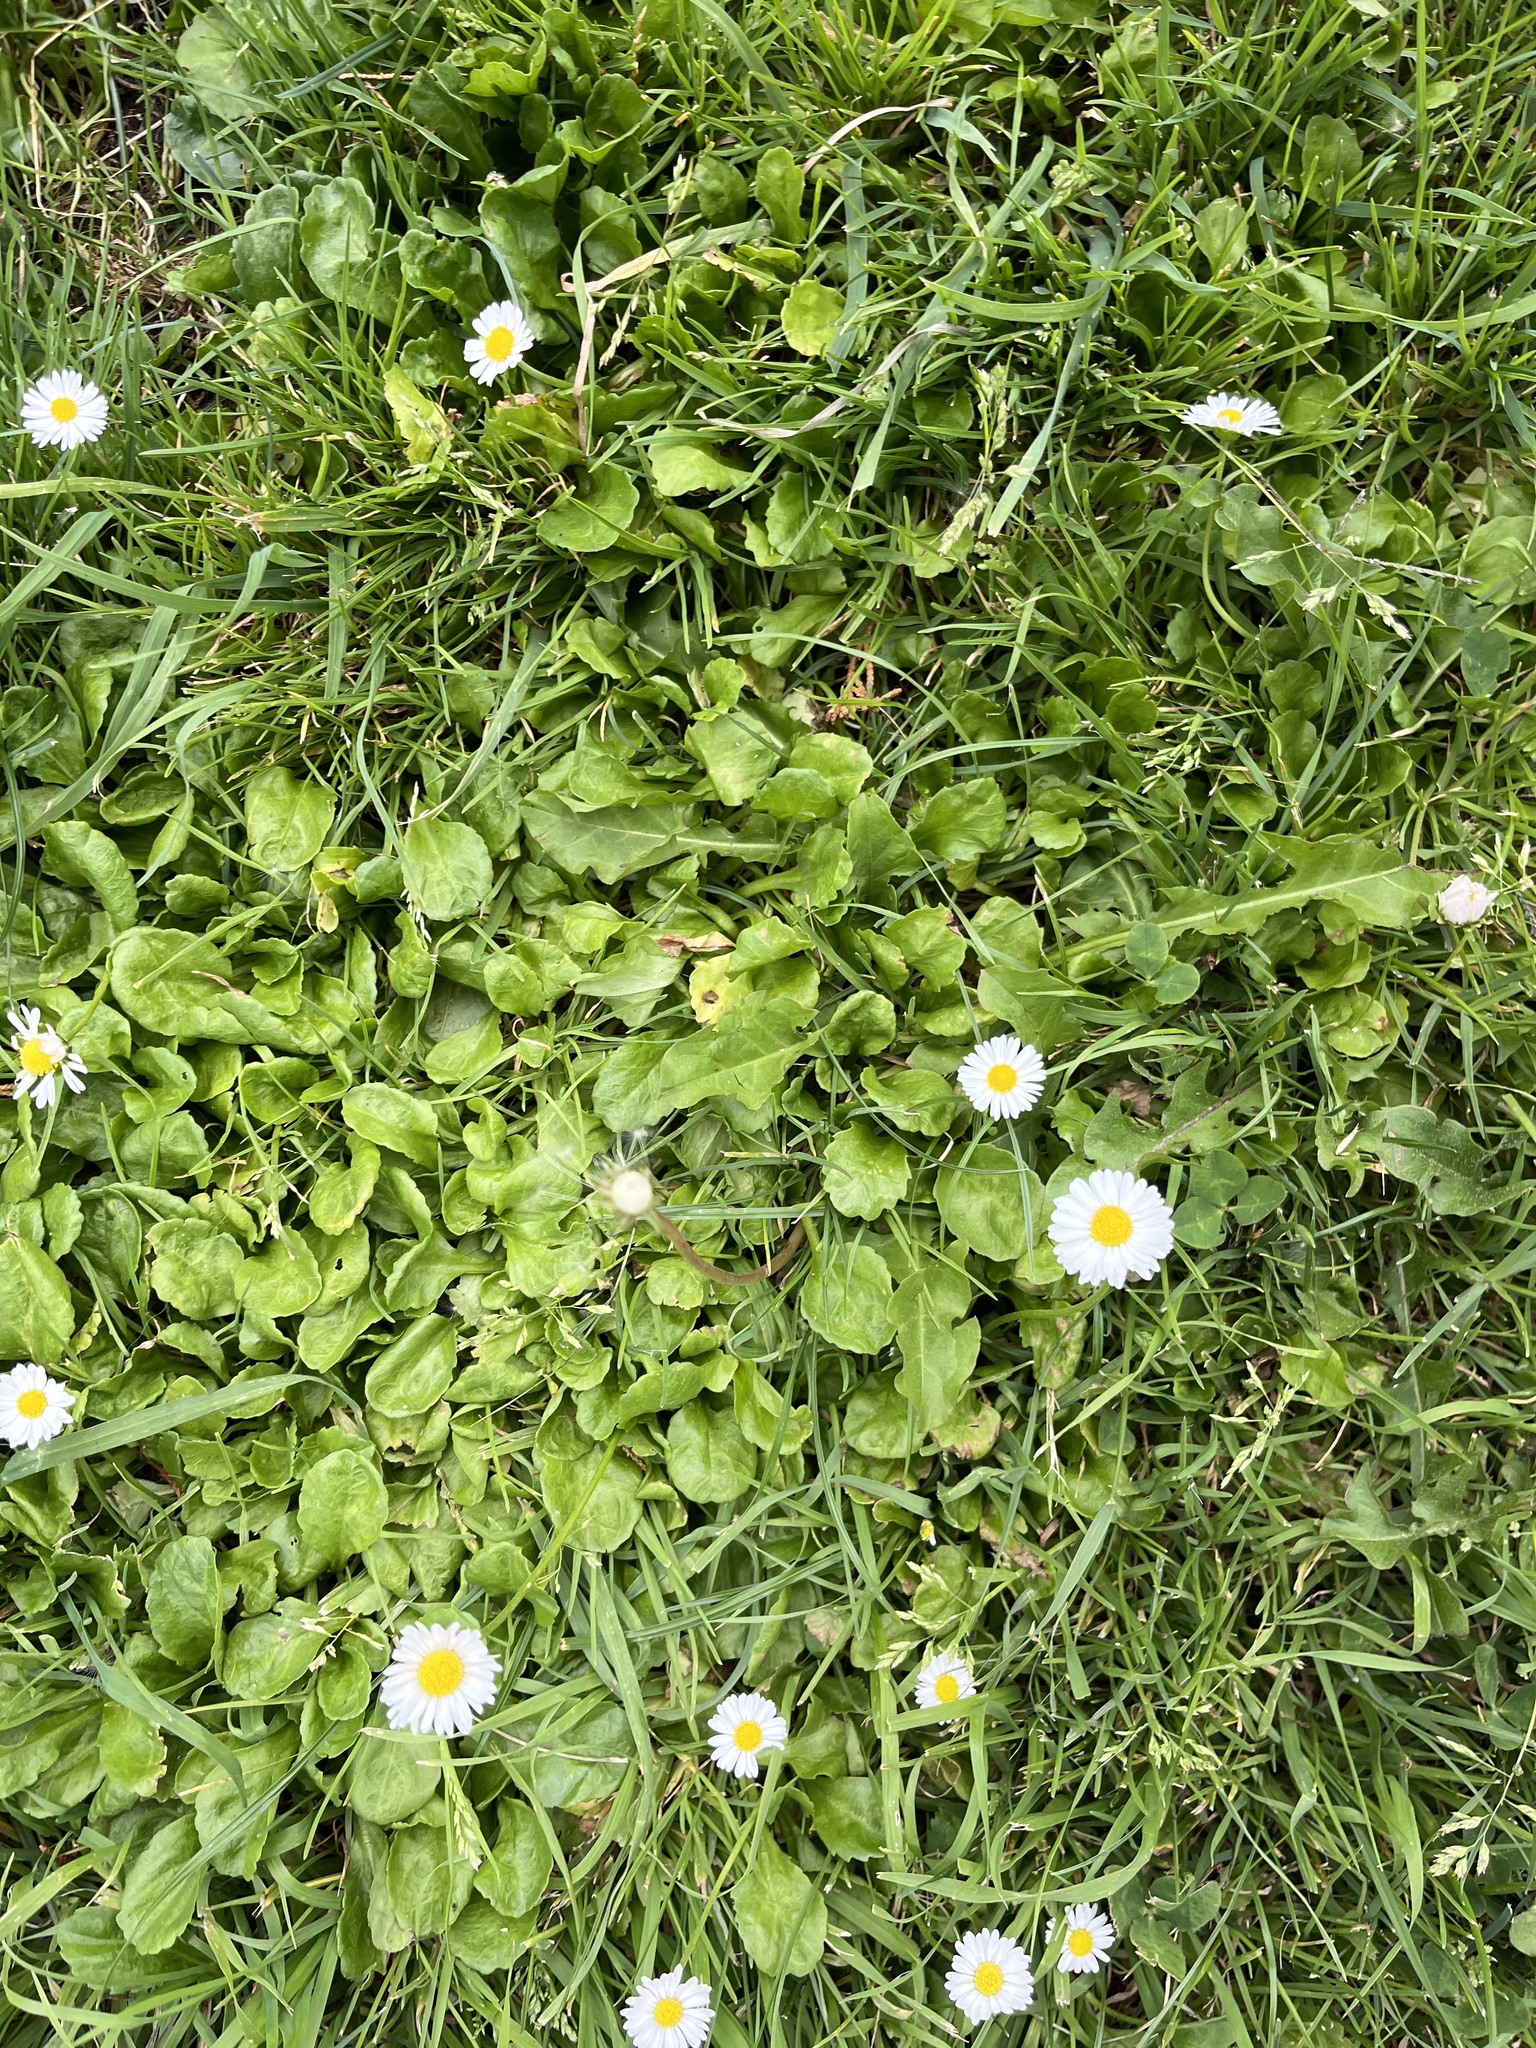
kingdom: Plantae
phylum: Tracheophyta
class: Magnoliopsida
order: Asterales
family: Asteraceae
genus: Bellis
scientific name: Bellis perennis
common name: Lawndaisy
